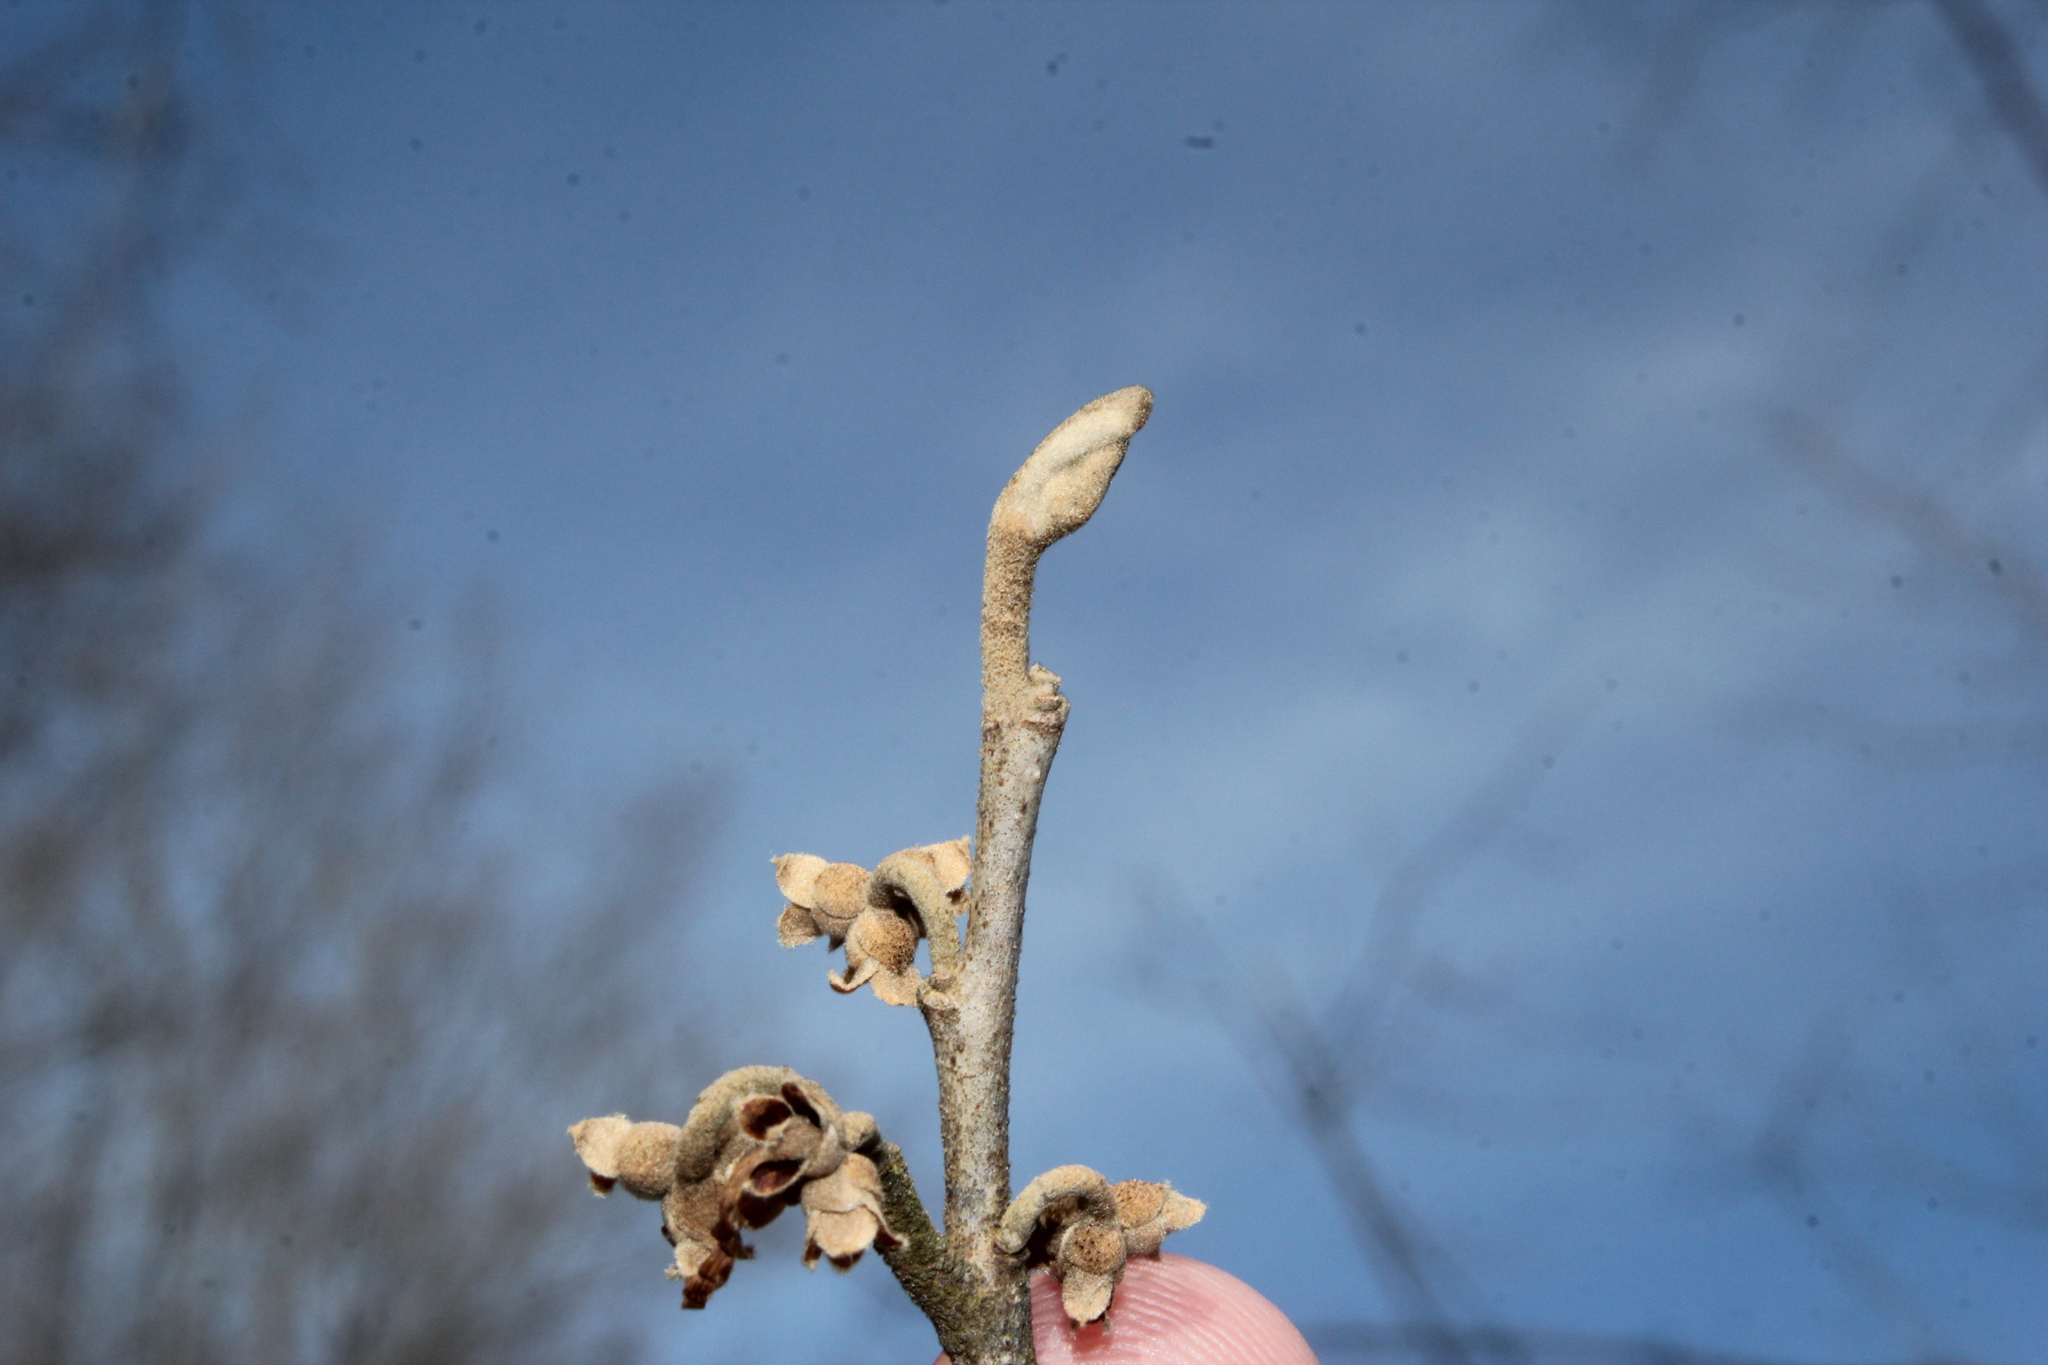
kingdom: Plantae
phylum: Tracheophyta
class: Magnoliopsida
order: Saxifragales
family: Hamamelidaceae
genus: Hamamelis
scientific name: Hamamelis virginiana
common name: Witch-hazel
